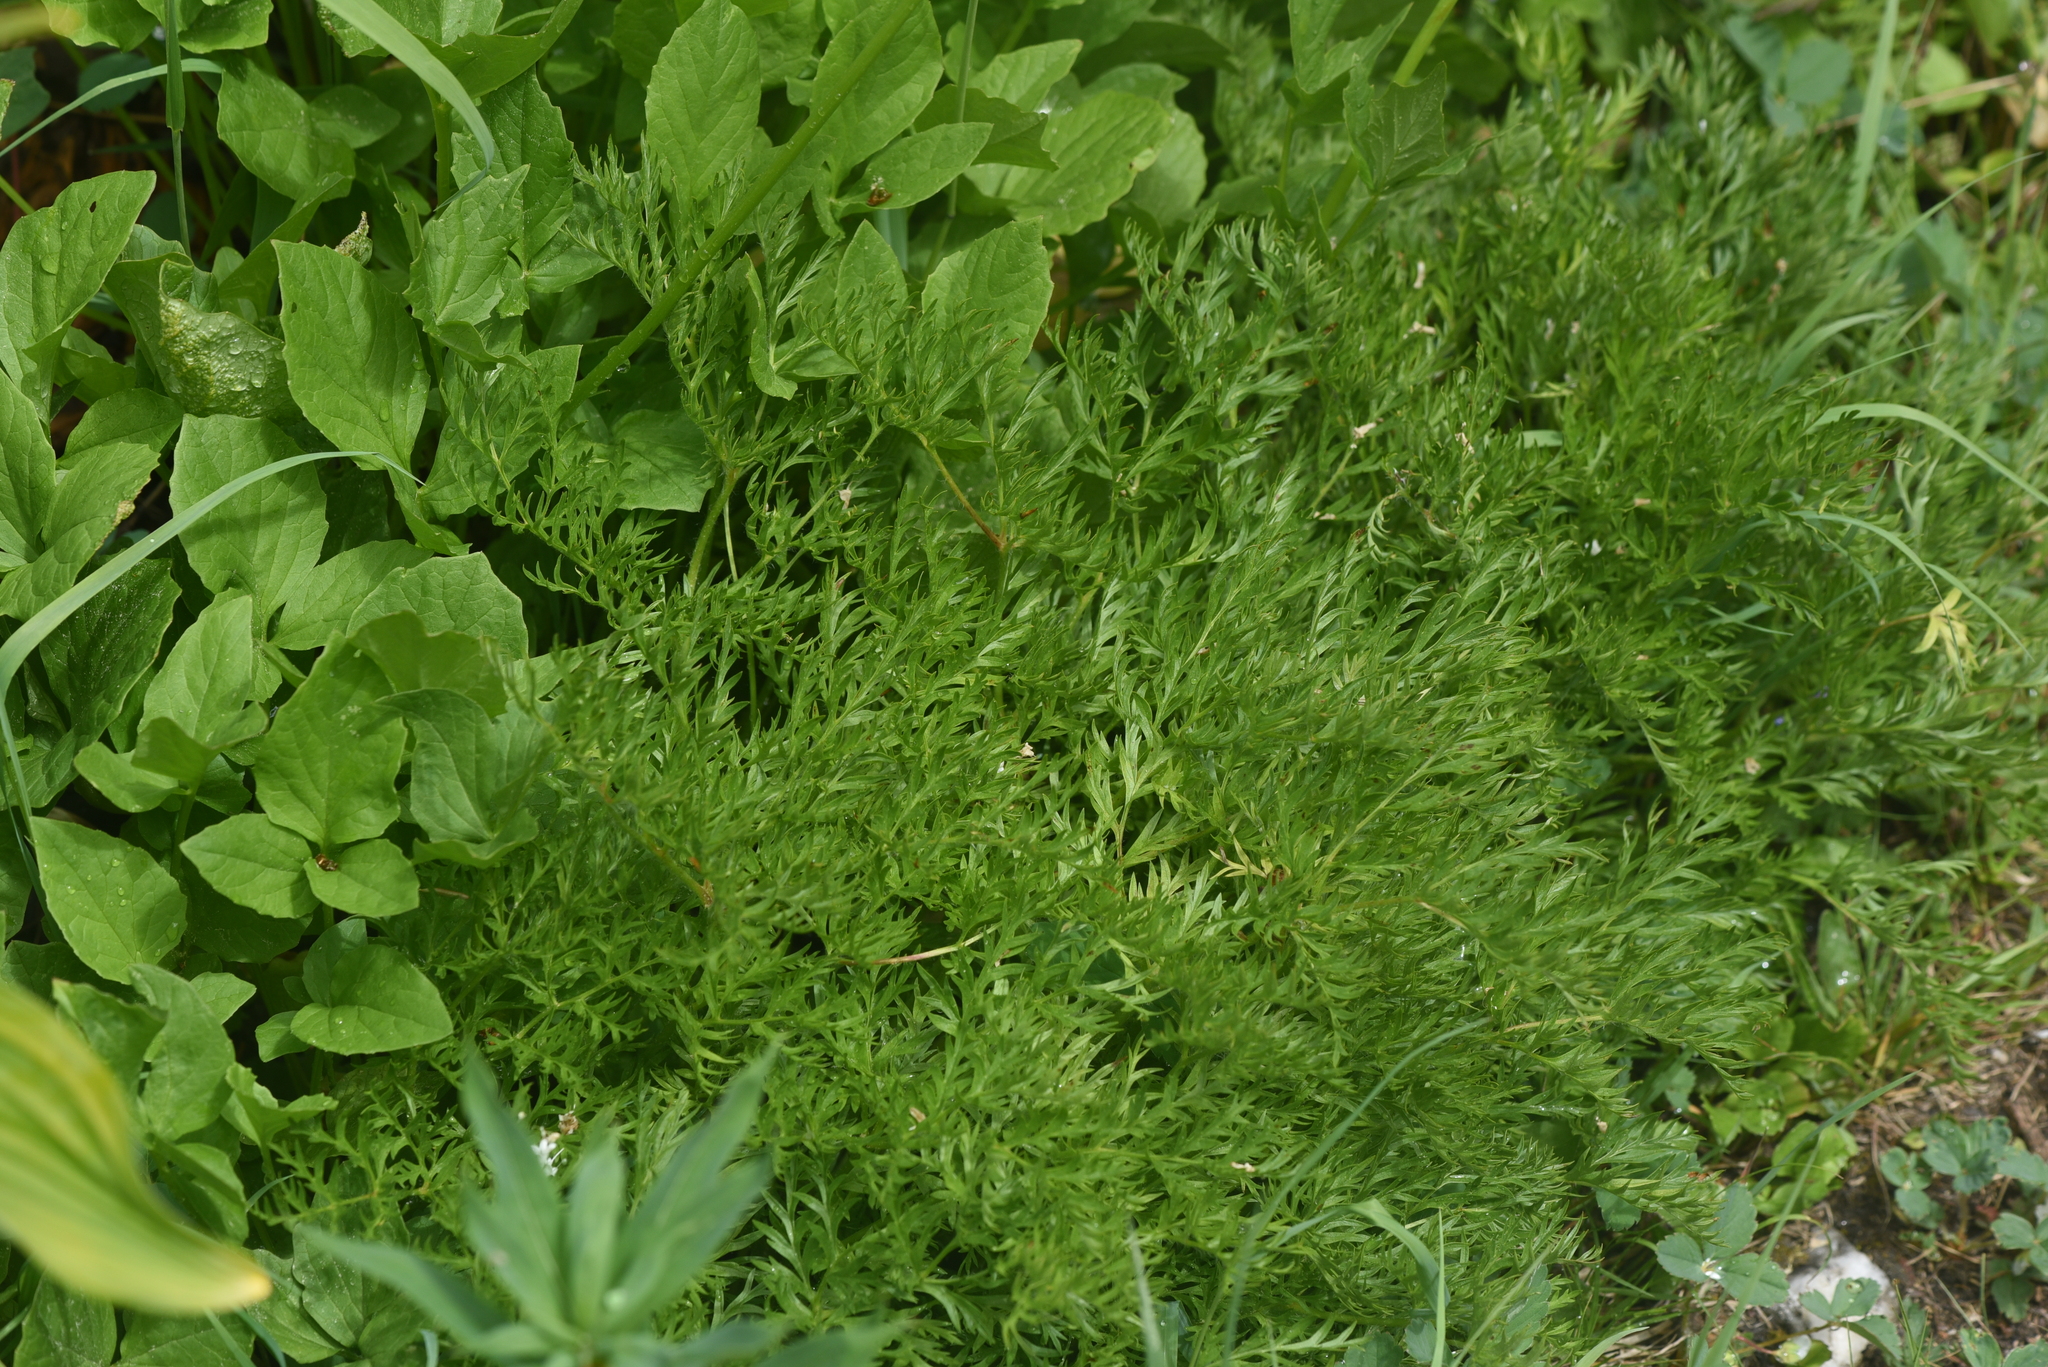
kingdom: Plantae
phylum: Tracheophyta
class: Magnoliopsida
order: Ranunculales
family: Ranunculaceae
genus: Pulsatilla
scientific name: Pulsatilla occidentalis
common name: Mountain pasqueflower
